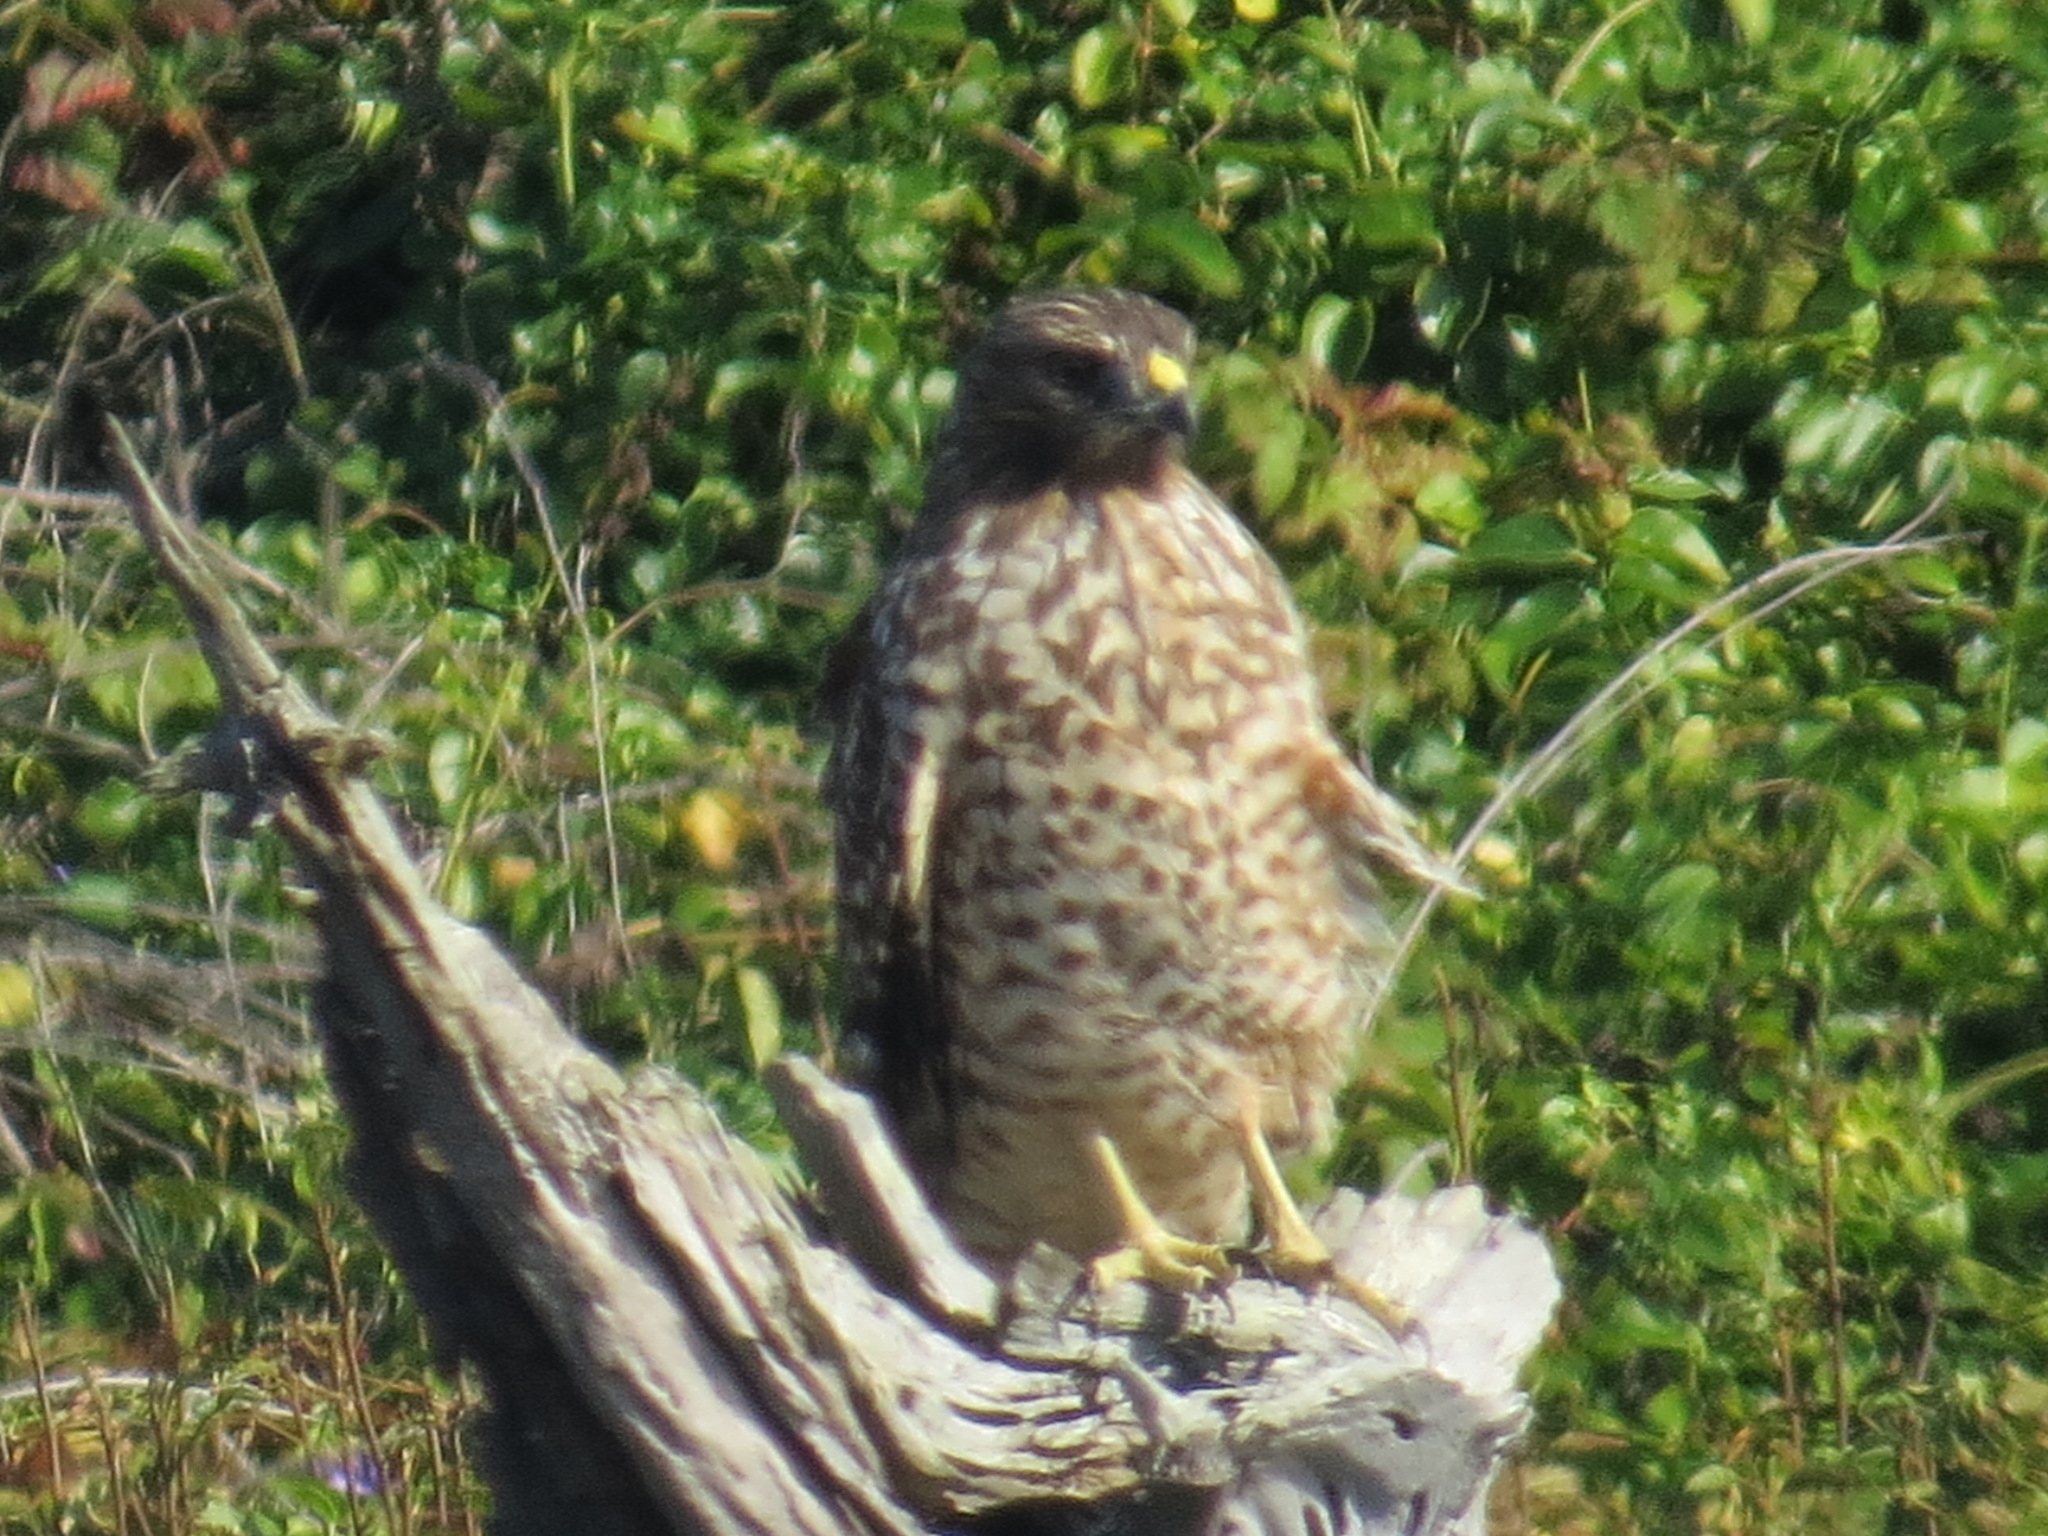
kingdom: Animalia
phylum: Chordata
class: Aves
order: Accipitriformes
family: Accipitridae
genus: Buteo
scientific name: Buteo lineatus
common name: Red-shouldered hawk
